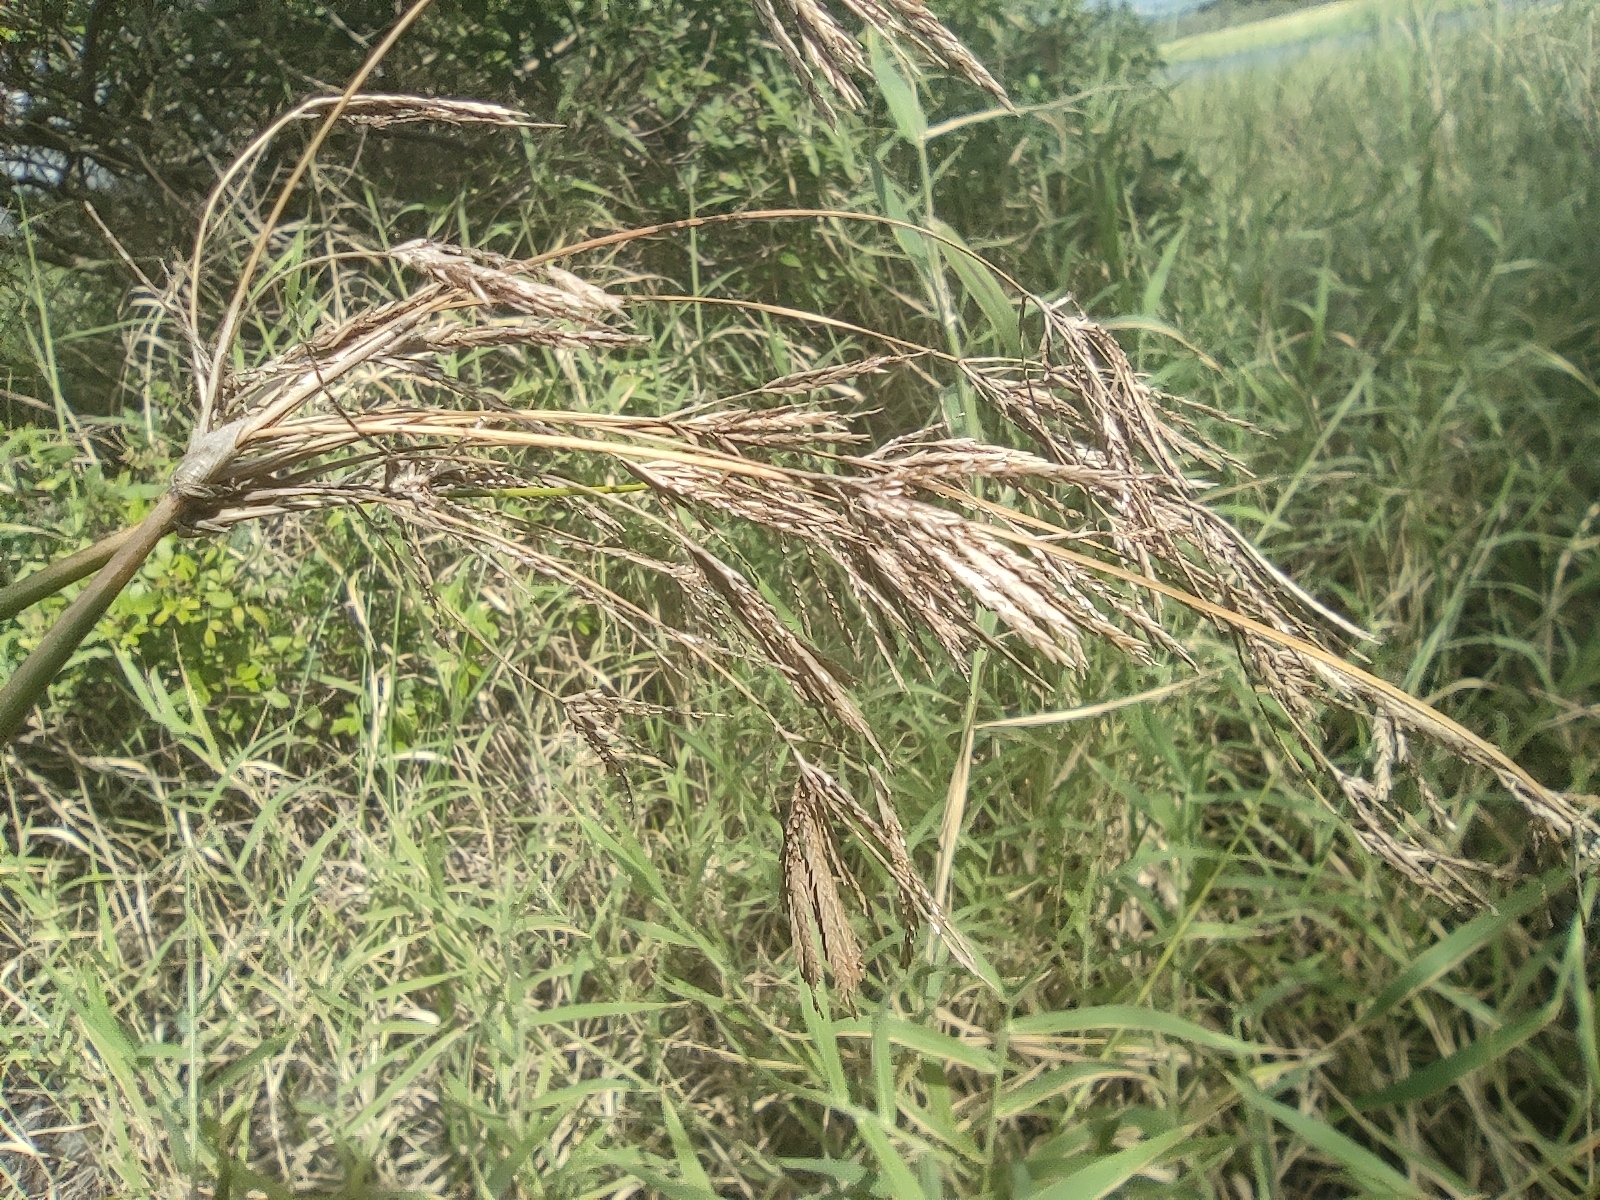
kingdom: Plantae
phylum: Tracheophyta
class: Liliopsida
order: Poales
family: Cyperaceae
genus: Cyperus
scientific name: Cyperus articulatus
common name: Jointed flatsedge
